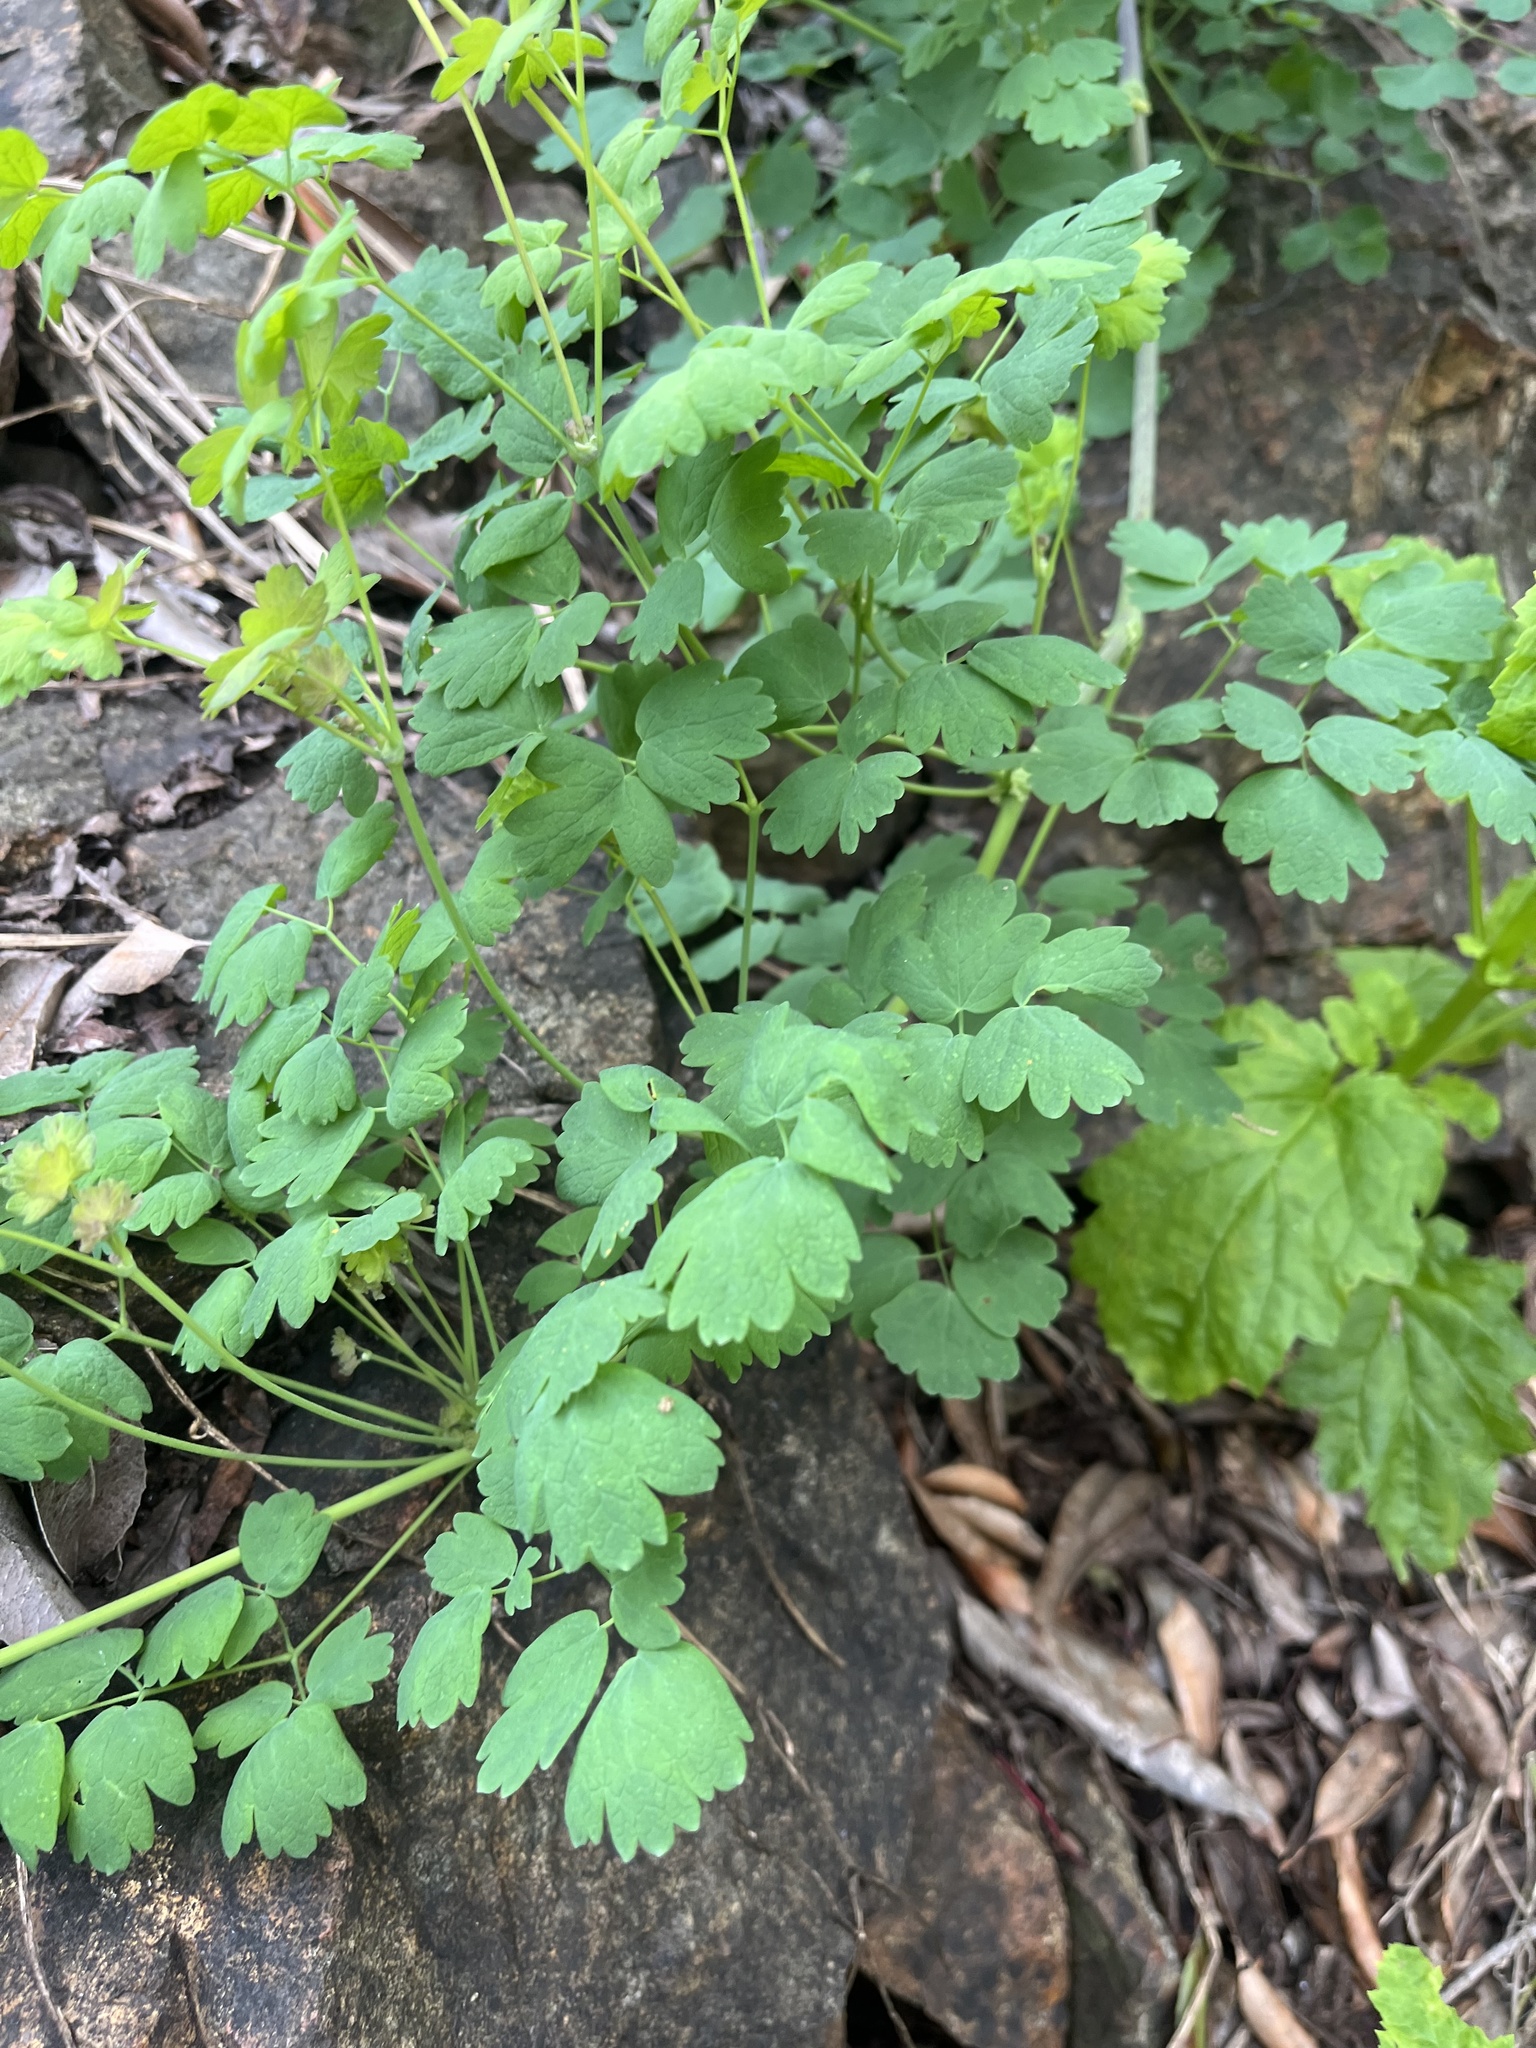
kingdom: Plantae
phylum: Tracheophyta
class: Magnoliopsida
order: Ranunculales
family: Ranunculaceae
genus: Thalictrum
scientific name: Thalictrum fendleri
